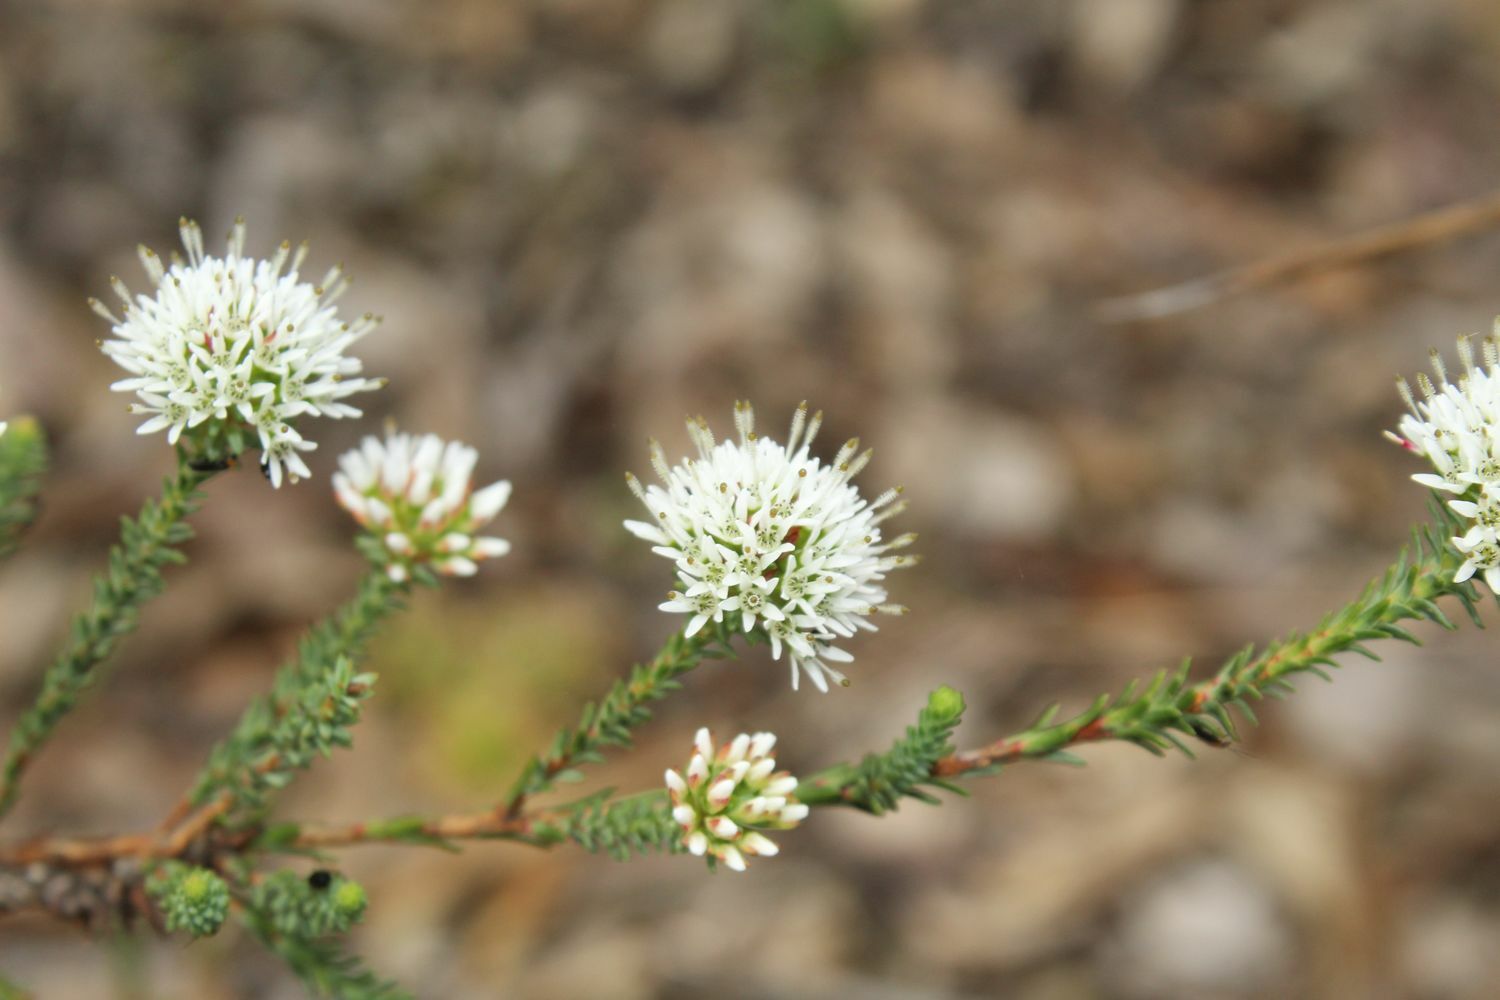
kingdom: Plantae
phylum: Tracheophyta
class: Magnoliopsida
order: Myrtales
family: Myrtaceae
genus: Darwinia
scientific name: Darwinia vestita
